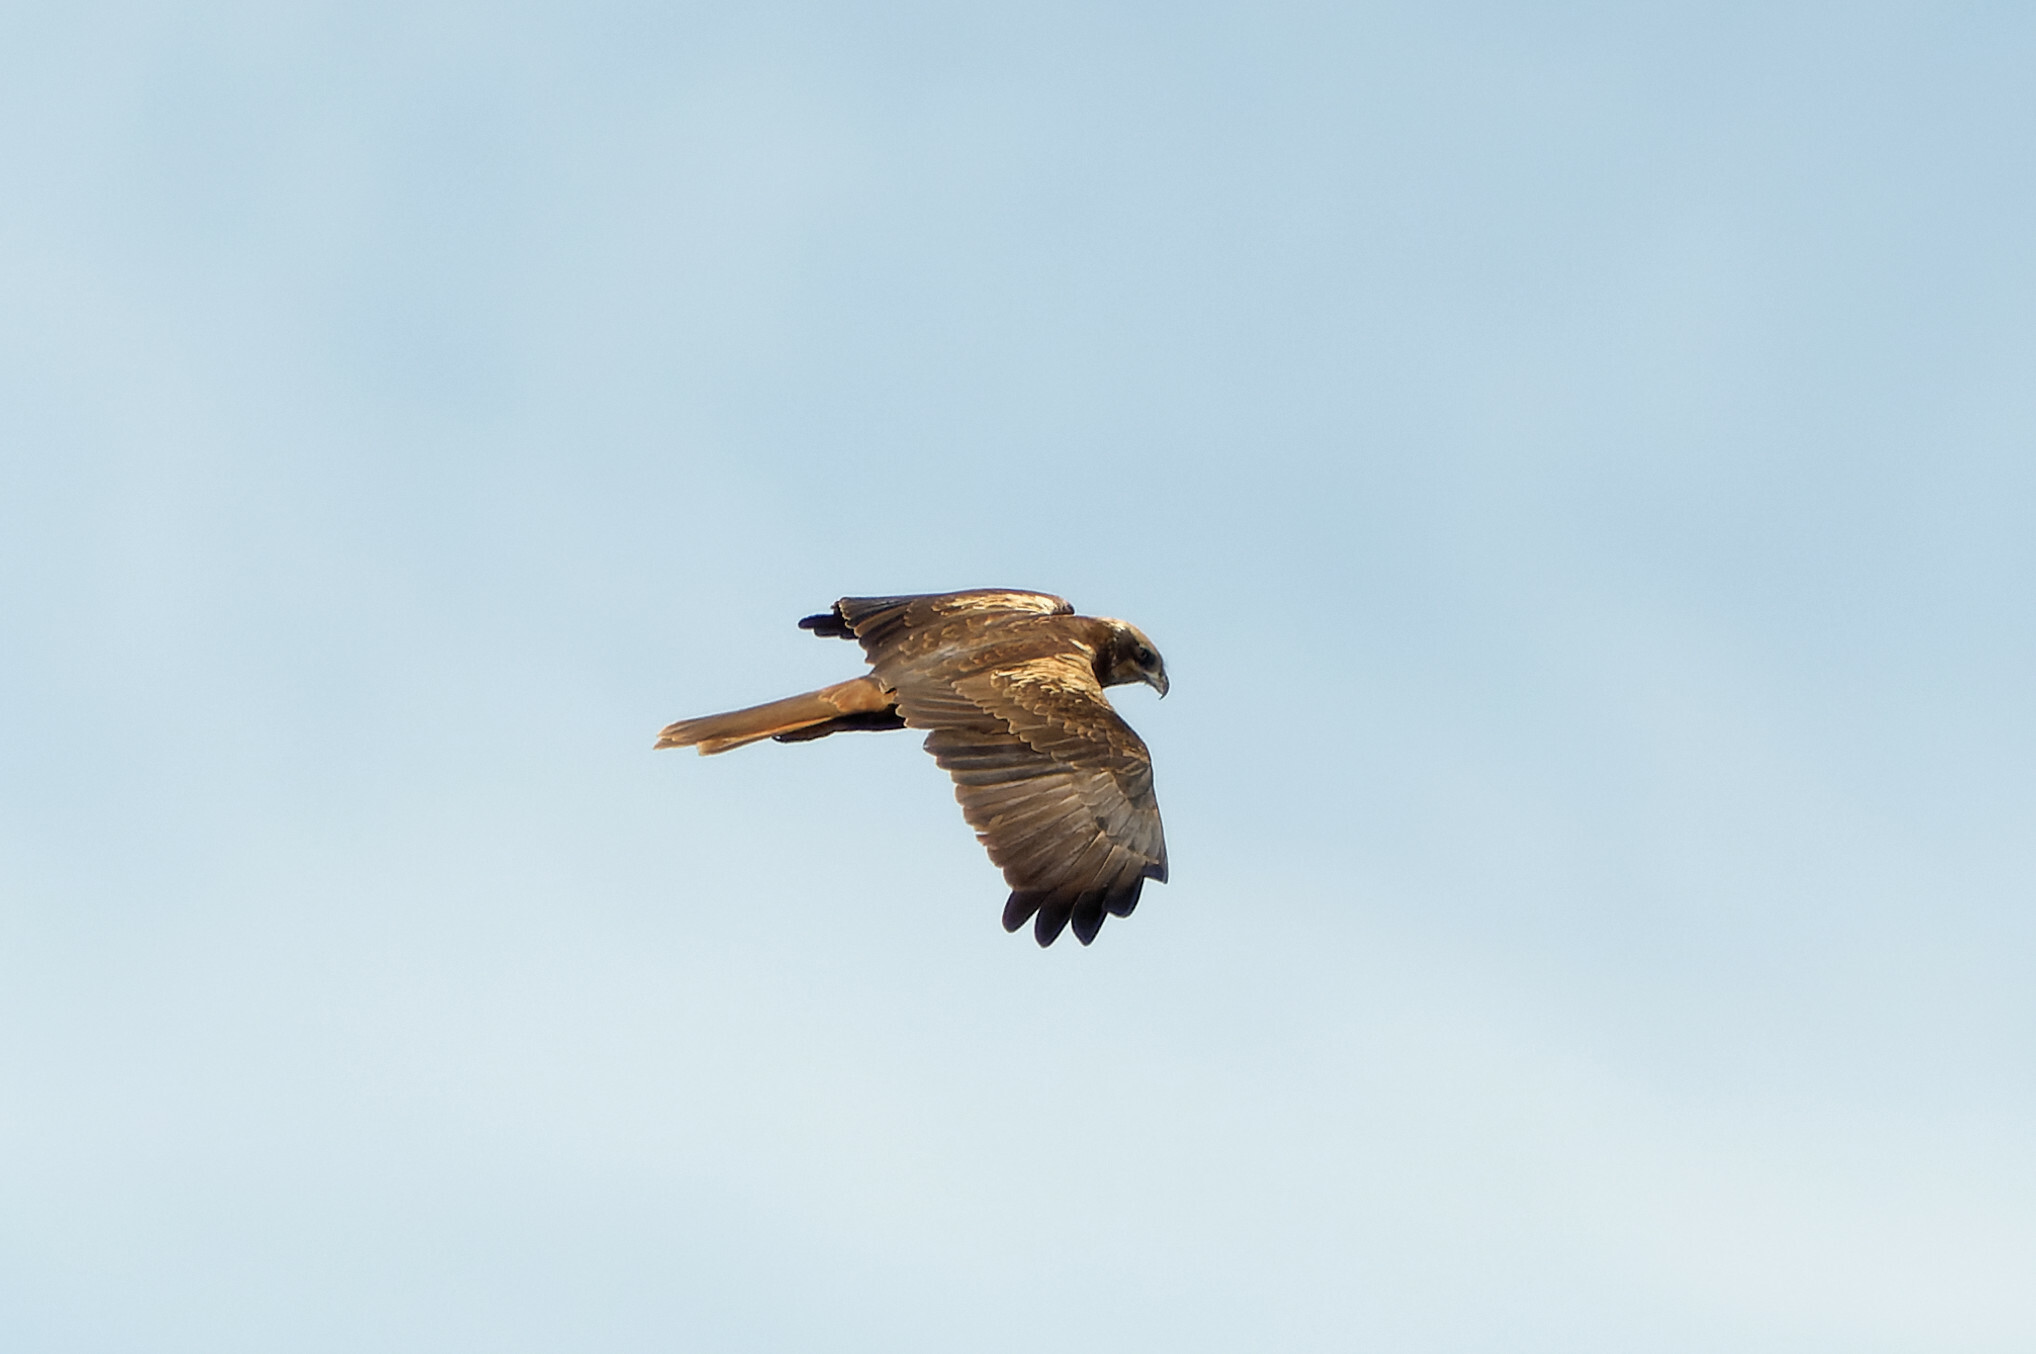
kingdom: Animalia
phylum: Chordata
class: Aves
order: Accipitriformes
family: Accipitridae
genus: Circus
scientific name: Circus aeruginosus
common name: Western marsh harrier
